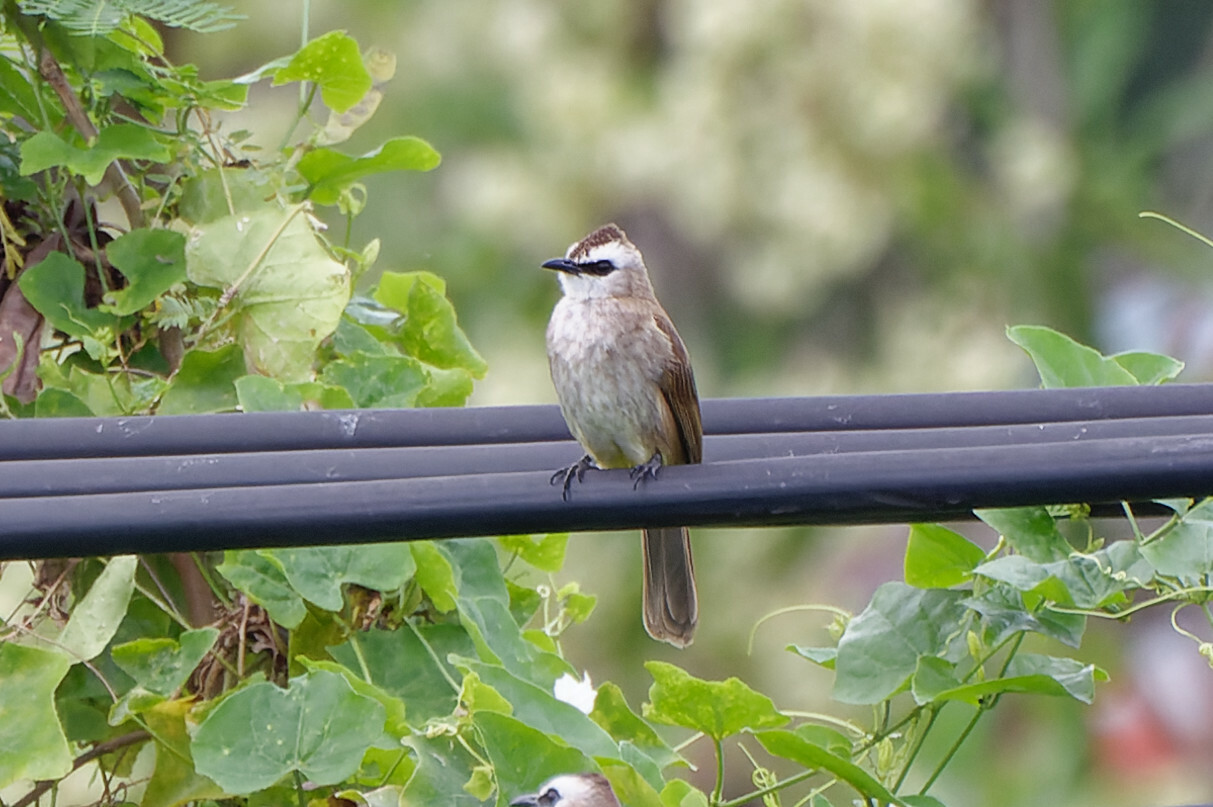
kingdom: Animalia
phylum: Chordata
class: Aves
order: Passeriformes
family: Pycnonotidae
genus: Pycnonotus
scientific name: Pycnonotus goiavier
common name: Yellow-vented bulbul
